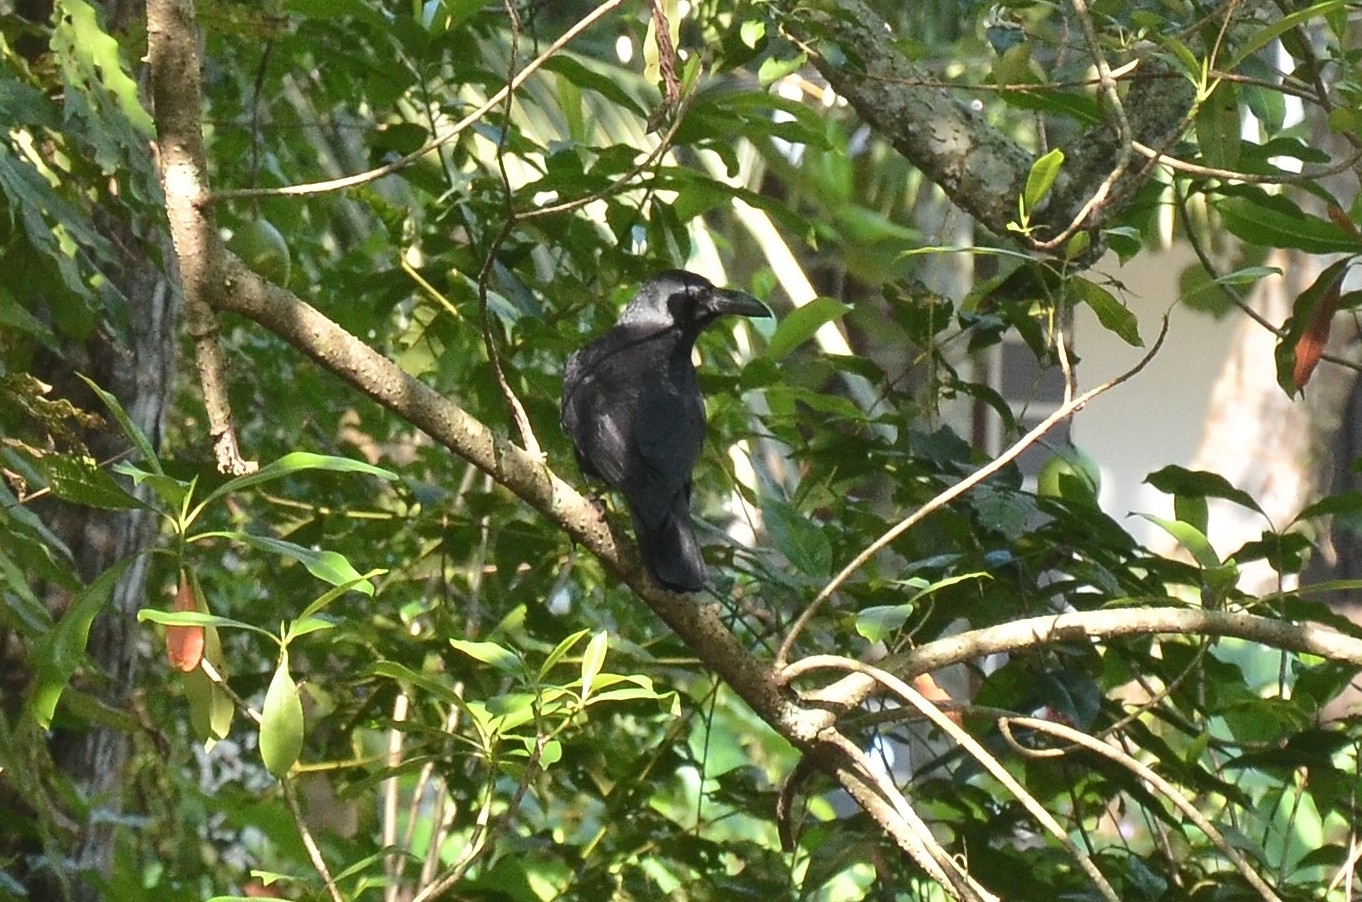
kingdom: Animalia
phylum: Chordata
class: Aves
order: Passeriformes
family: Corvidae
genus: Corvus
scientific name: Corvus macrorhynchos
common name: Large-billed crow
